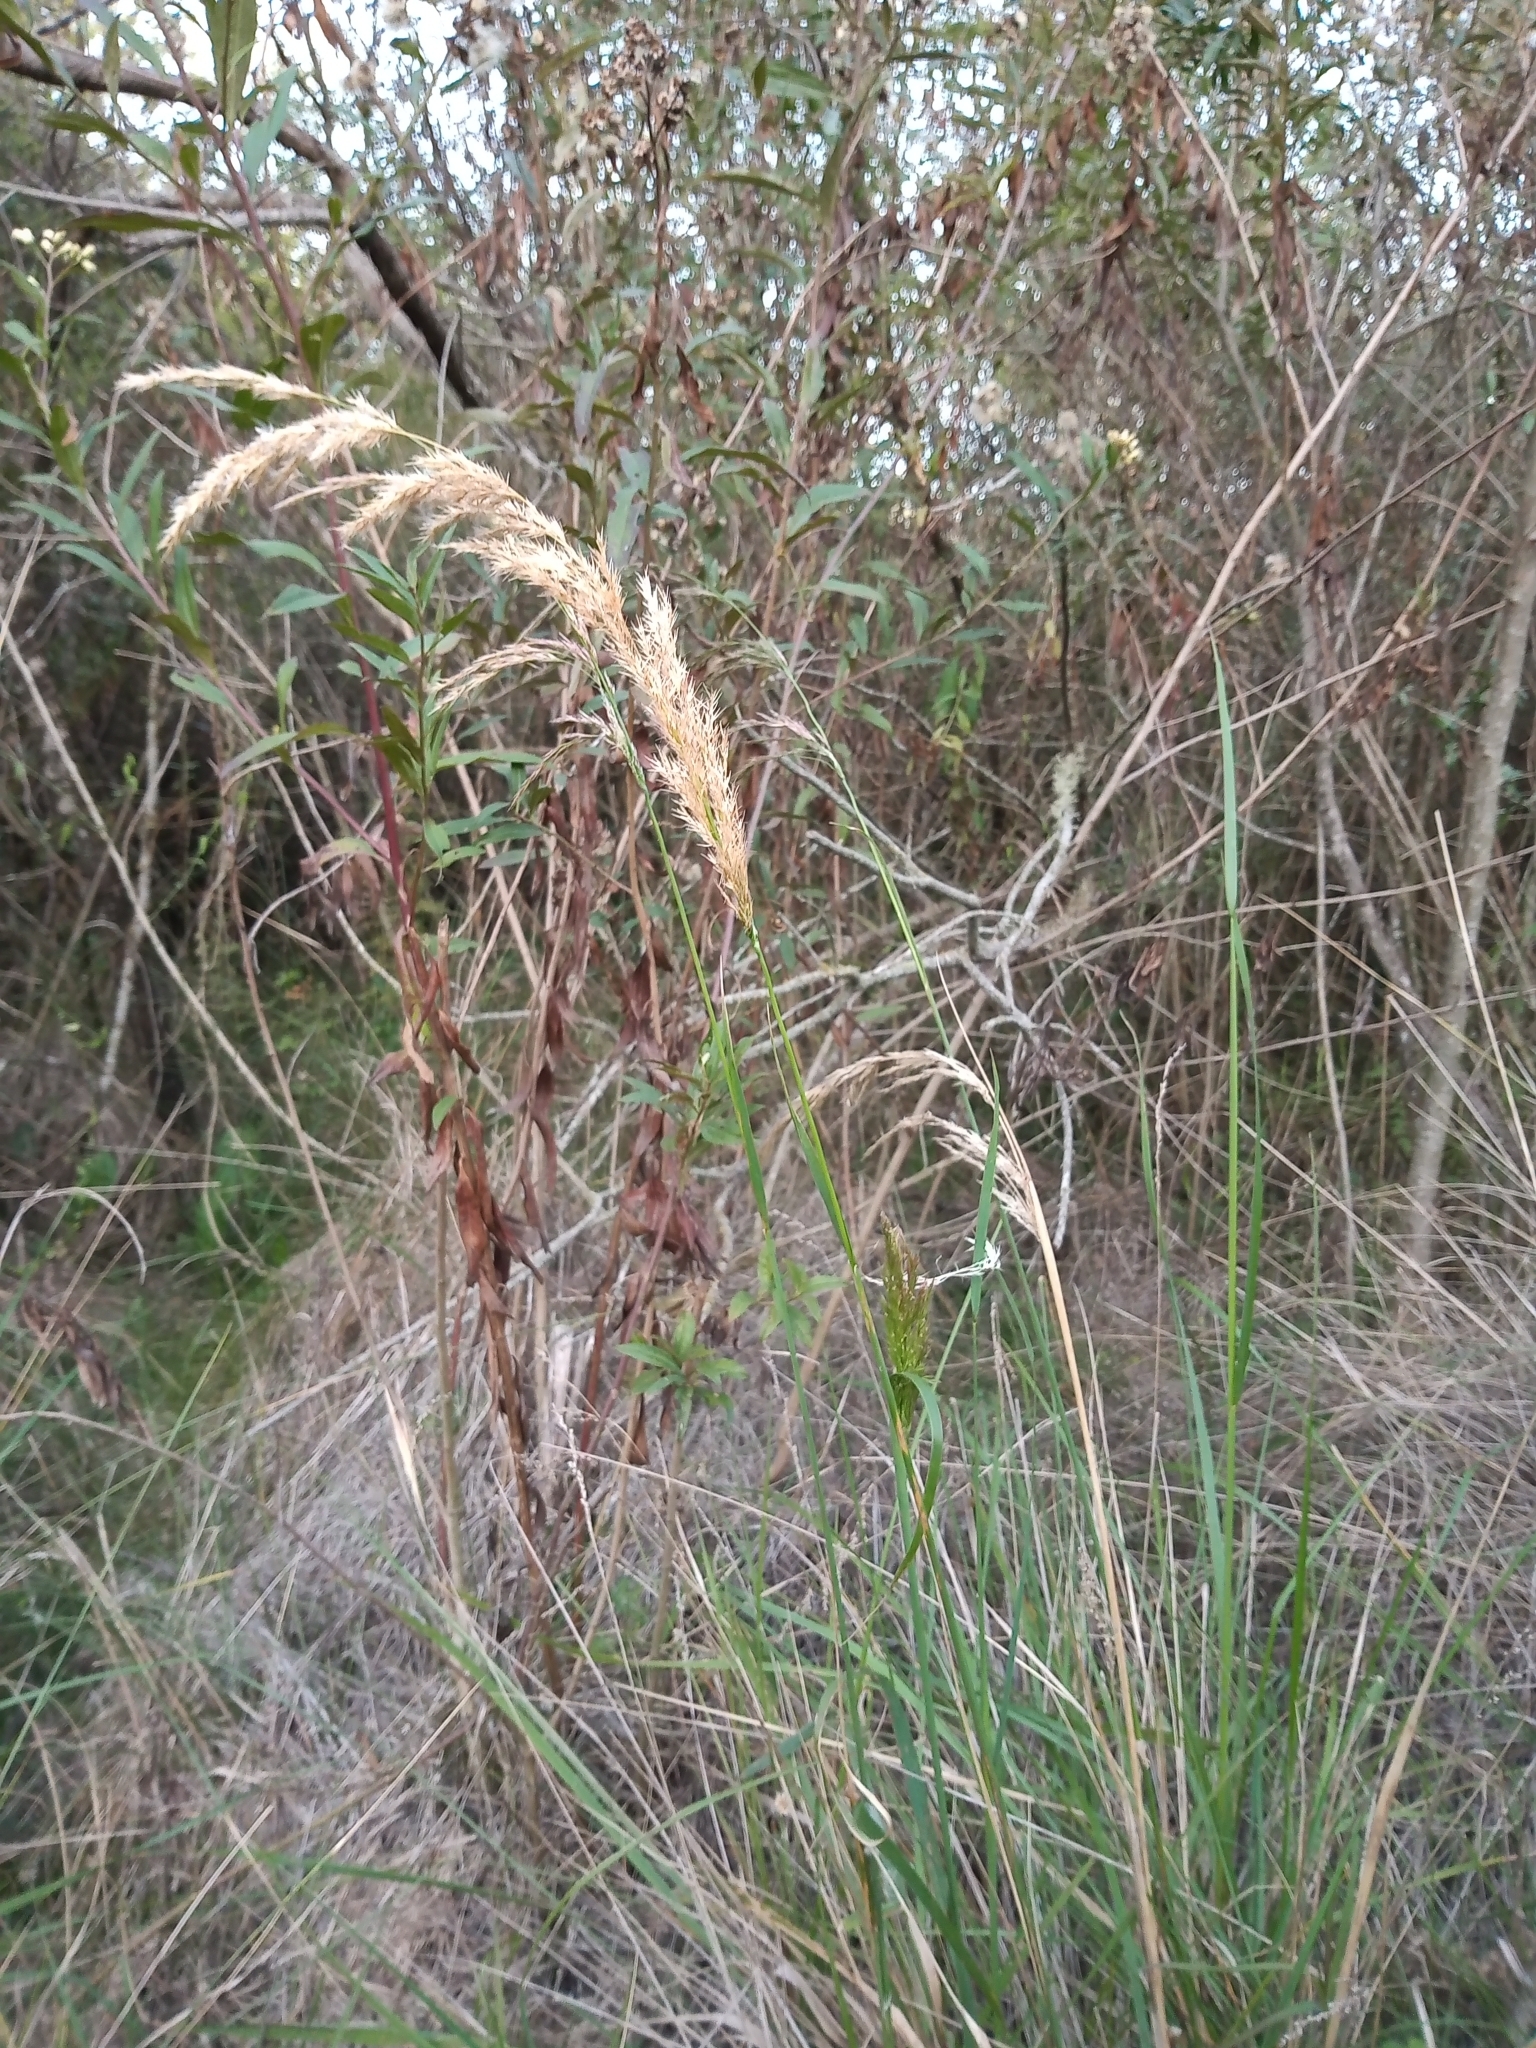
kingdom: Plantae
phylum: Tracheophyta
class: Liliopsida
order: Poales
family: Poaceae
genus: Cinnagrostis
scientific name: Cinnagrostis viridiflavescens
